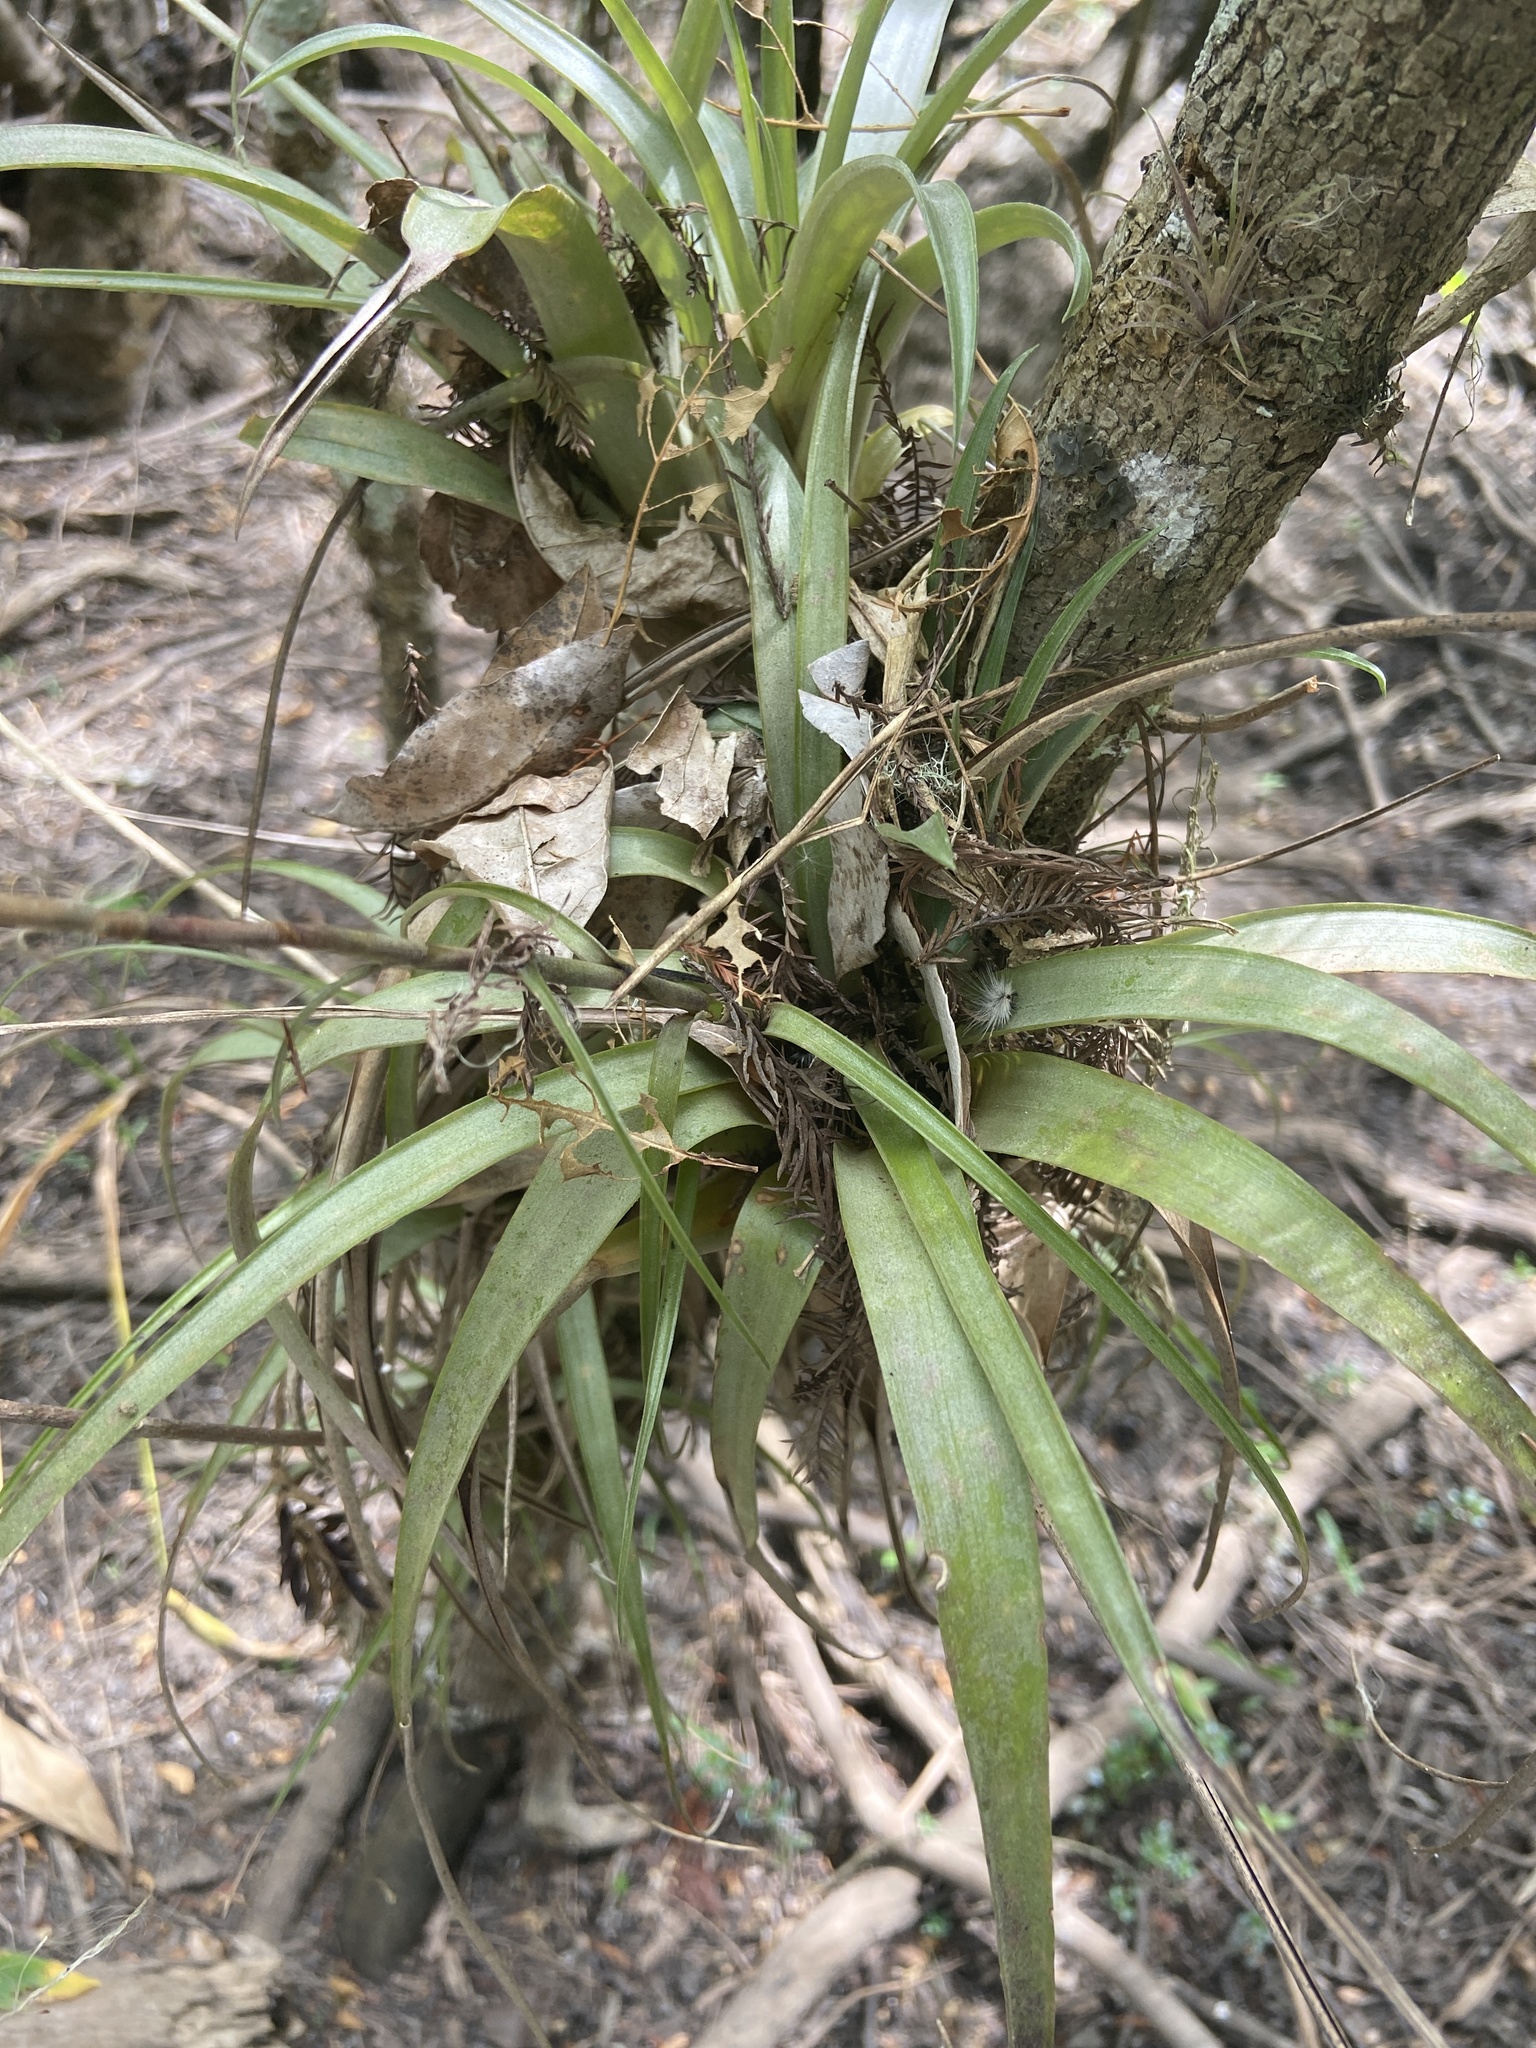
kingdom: Plantae
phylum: Tracheophyta
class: Liliopsida
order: Poales
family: Bromeliaceae
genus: Tillandsia
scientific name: Tillandsia variabilis
